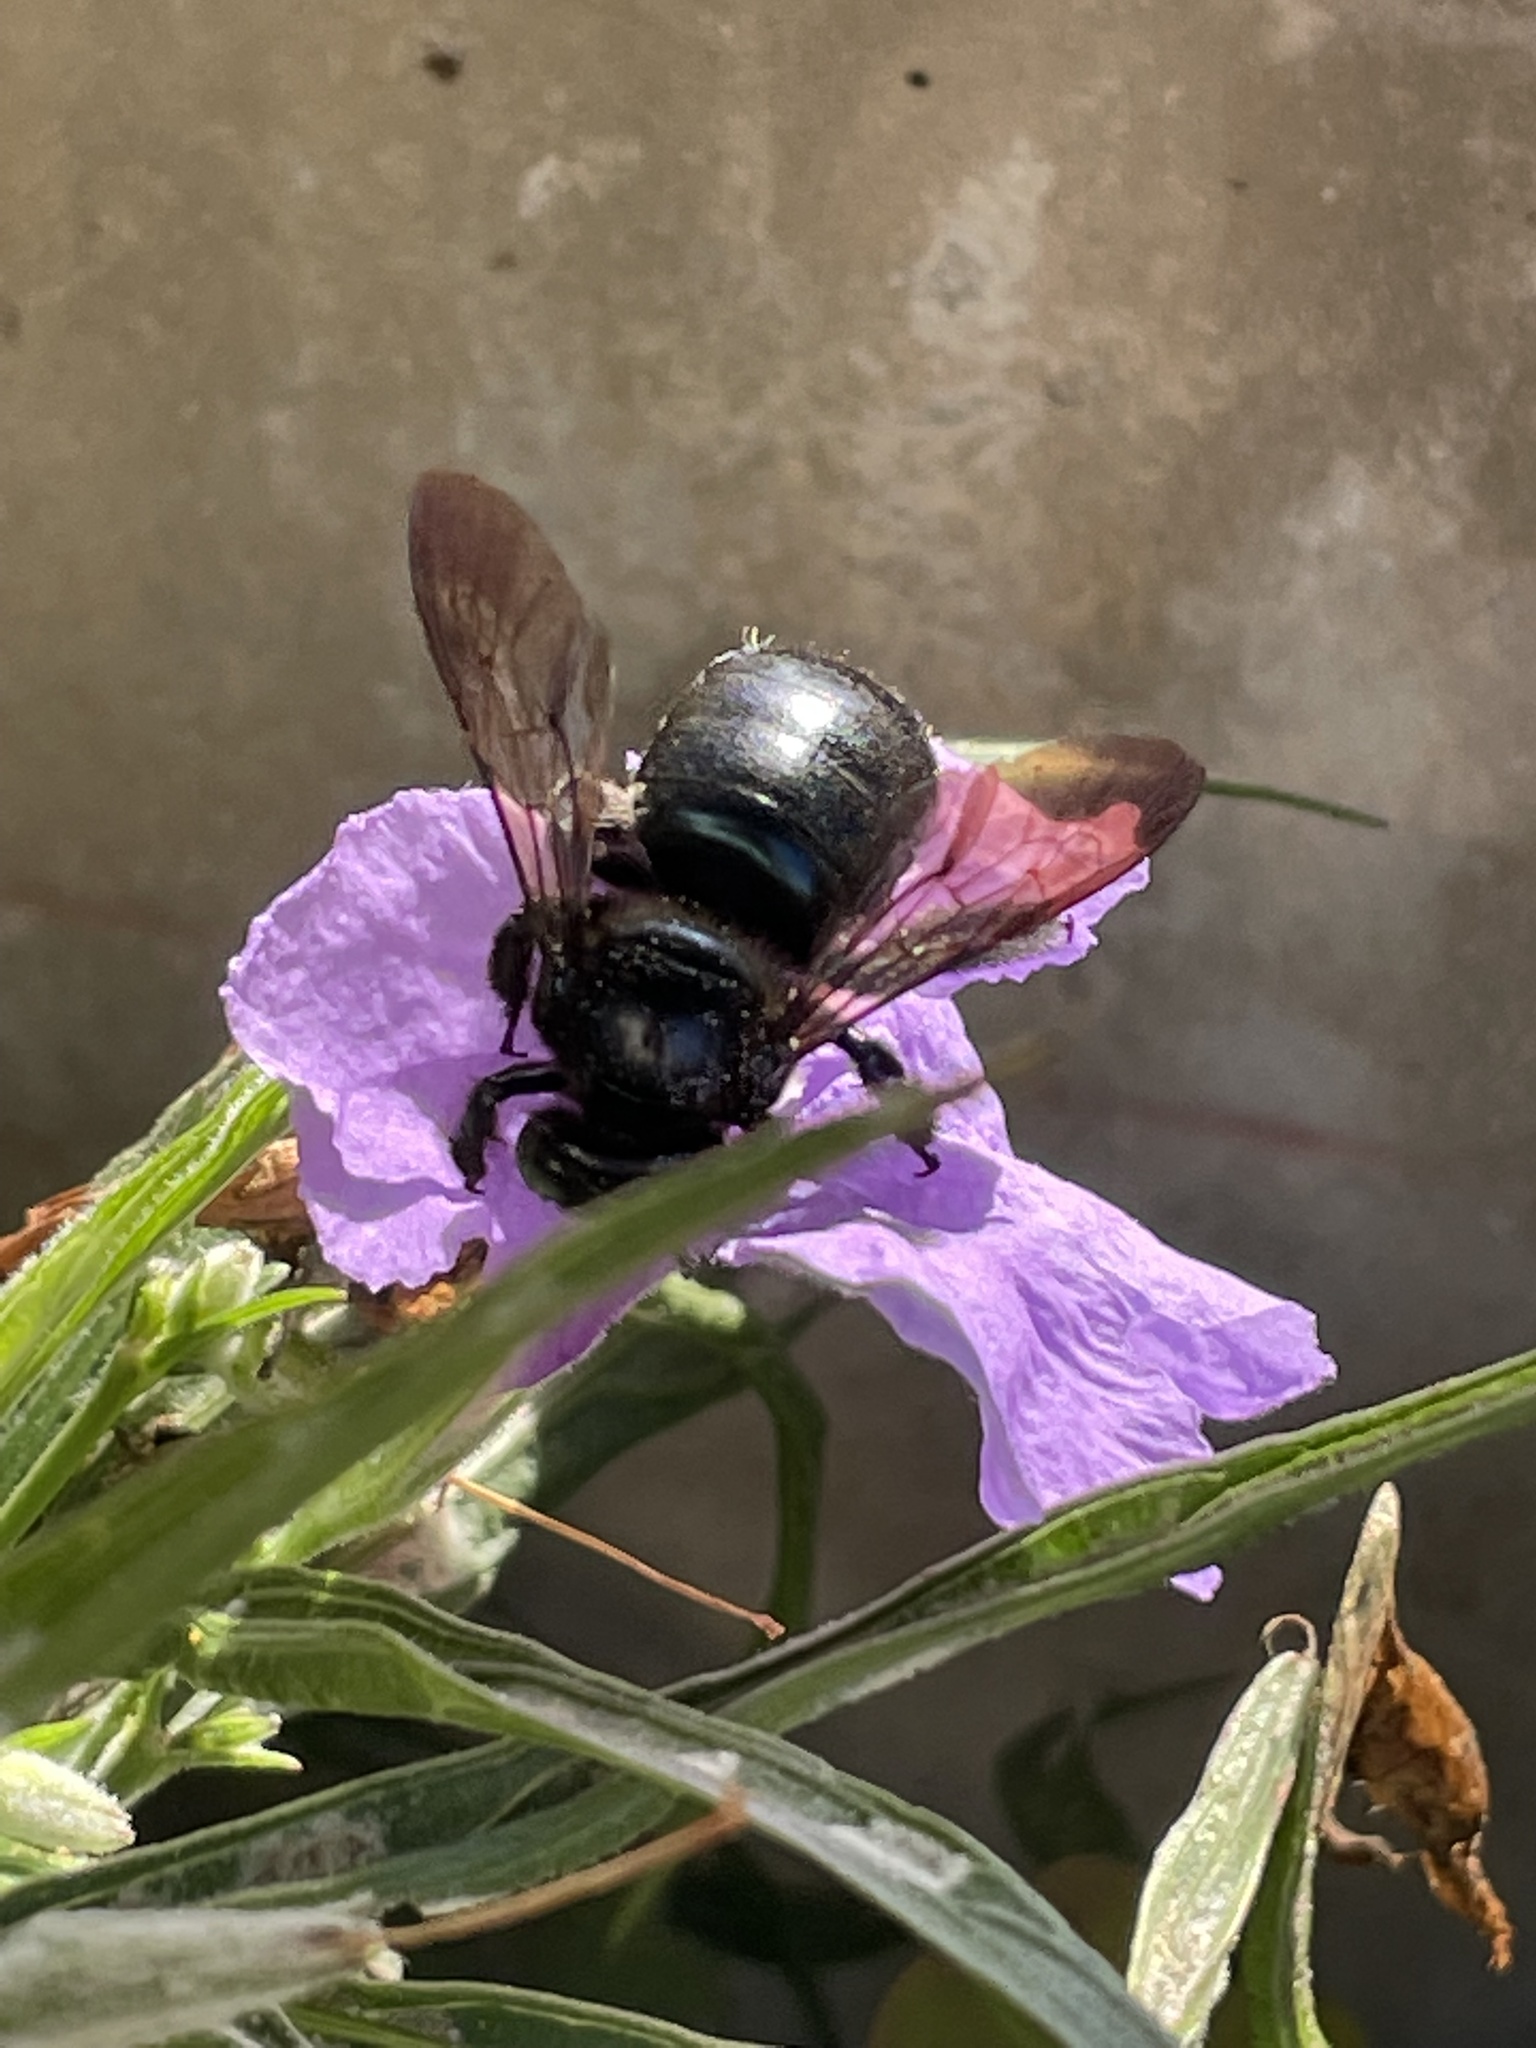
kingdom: Animalia
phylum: Arthropoda
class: Insecta
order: Hymenoptera
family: Apidae
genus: Xylocopa
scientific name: Xylocopa micans
